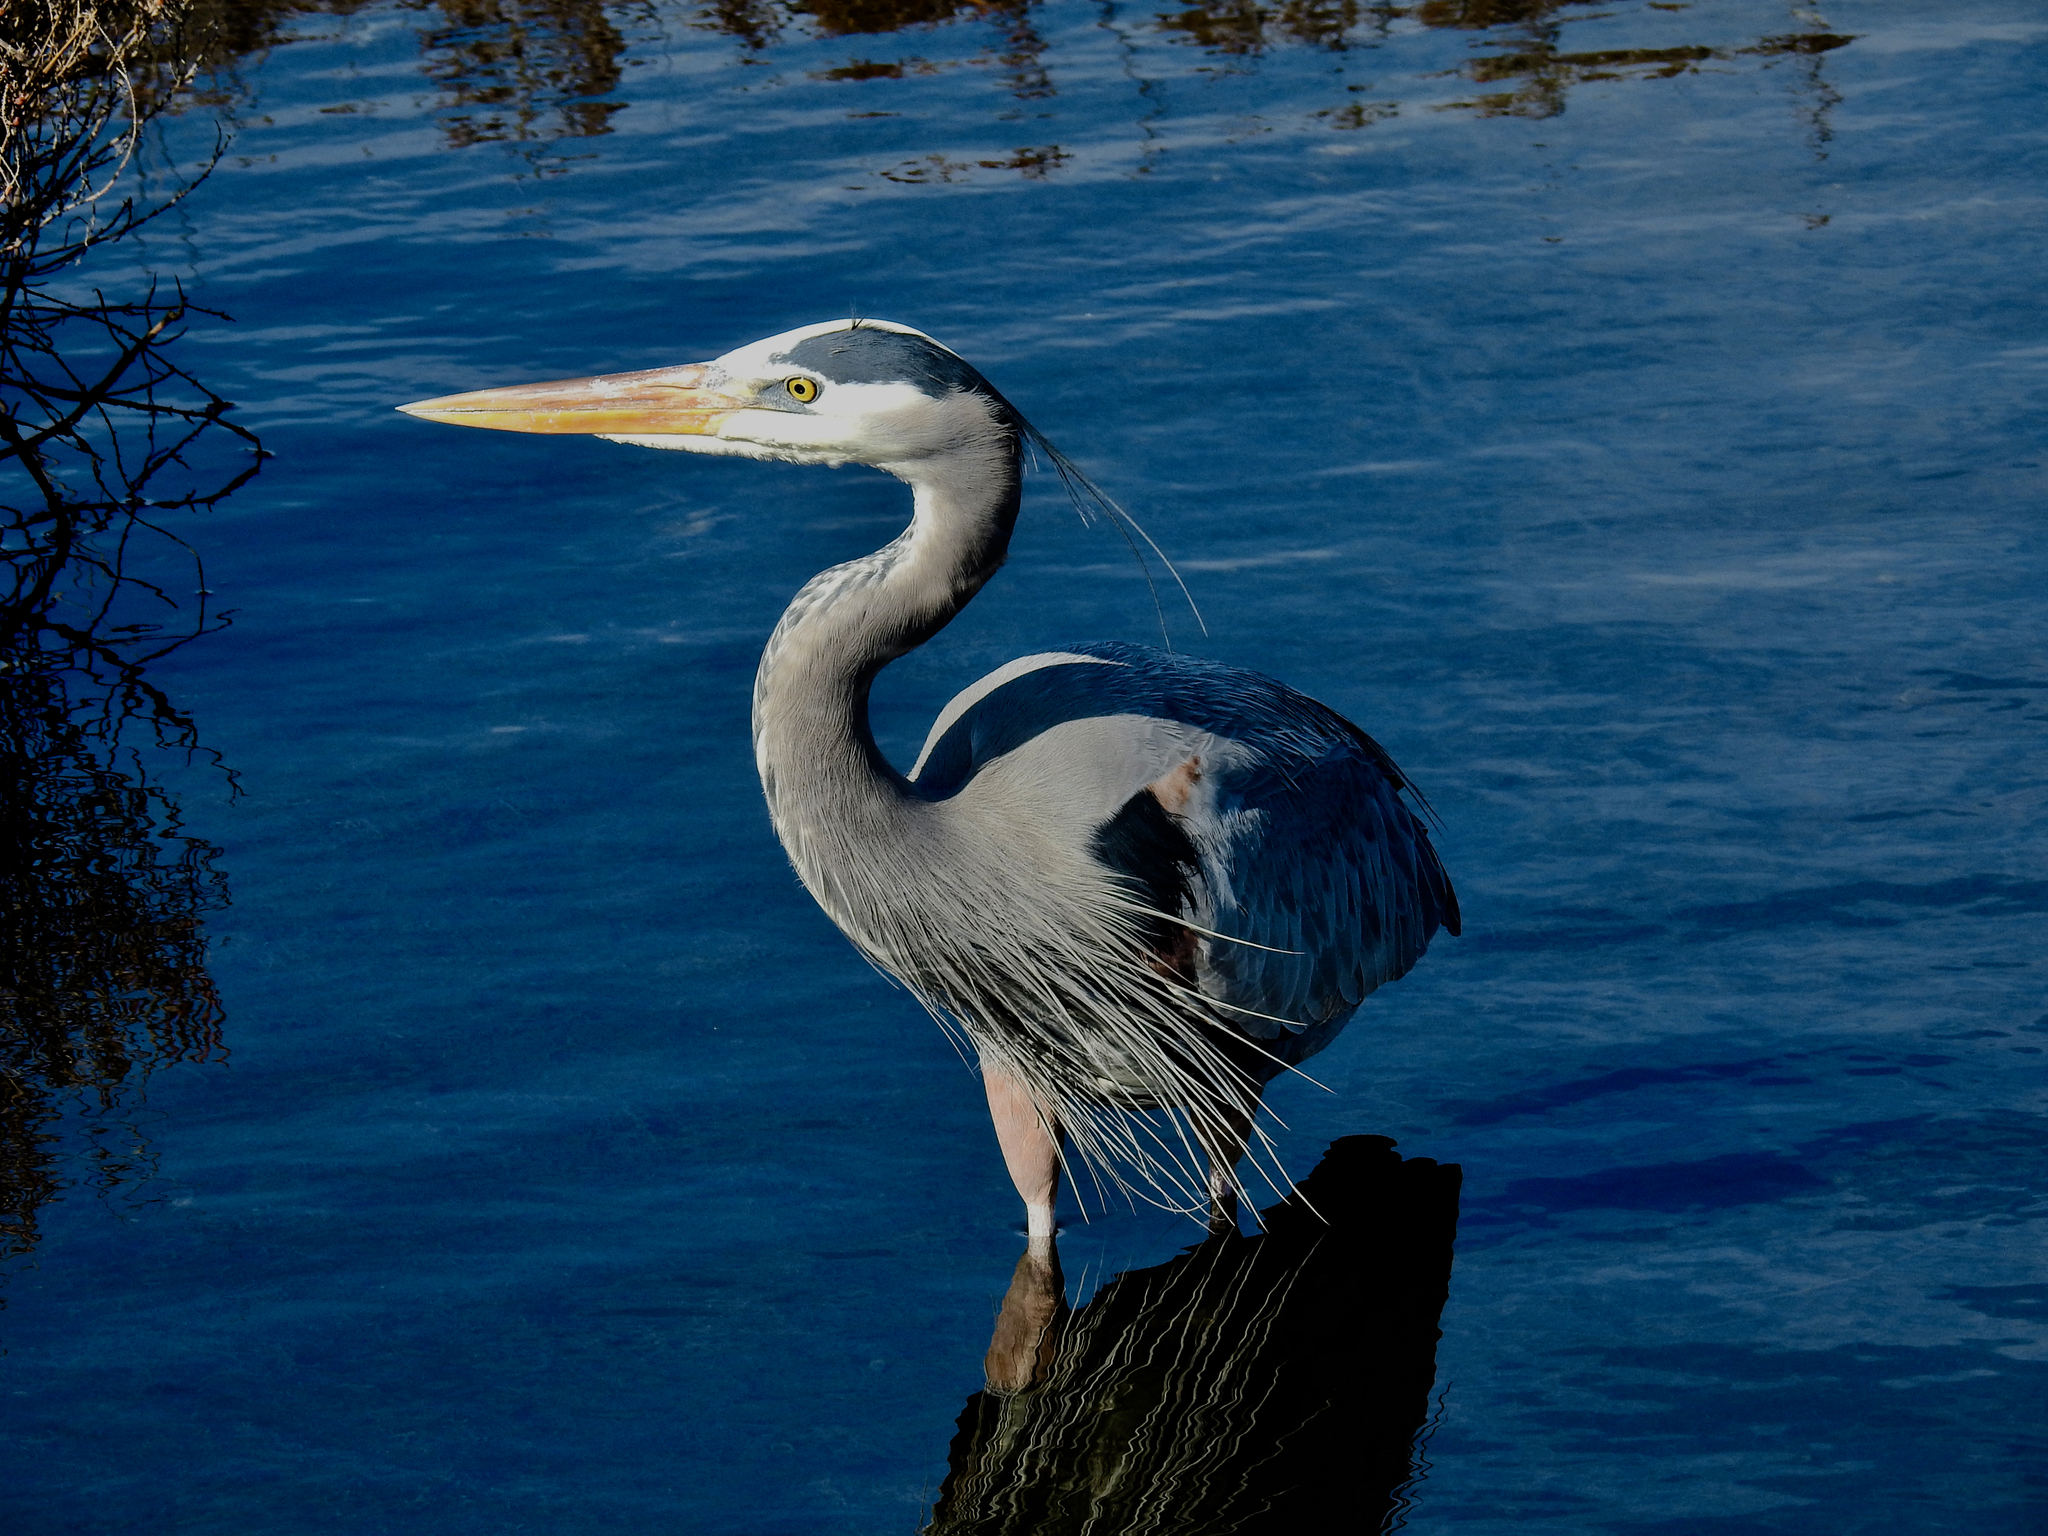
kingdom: Animalia
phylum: Chordata
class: Aves
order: Pelecaniformes
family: Ardeidae
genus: Ardea
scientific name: Ardea herodias
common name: Great blue heron
